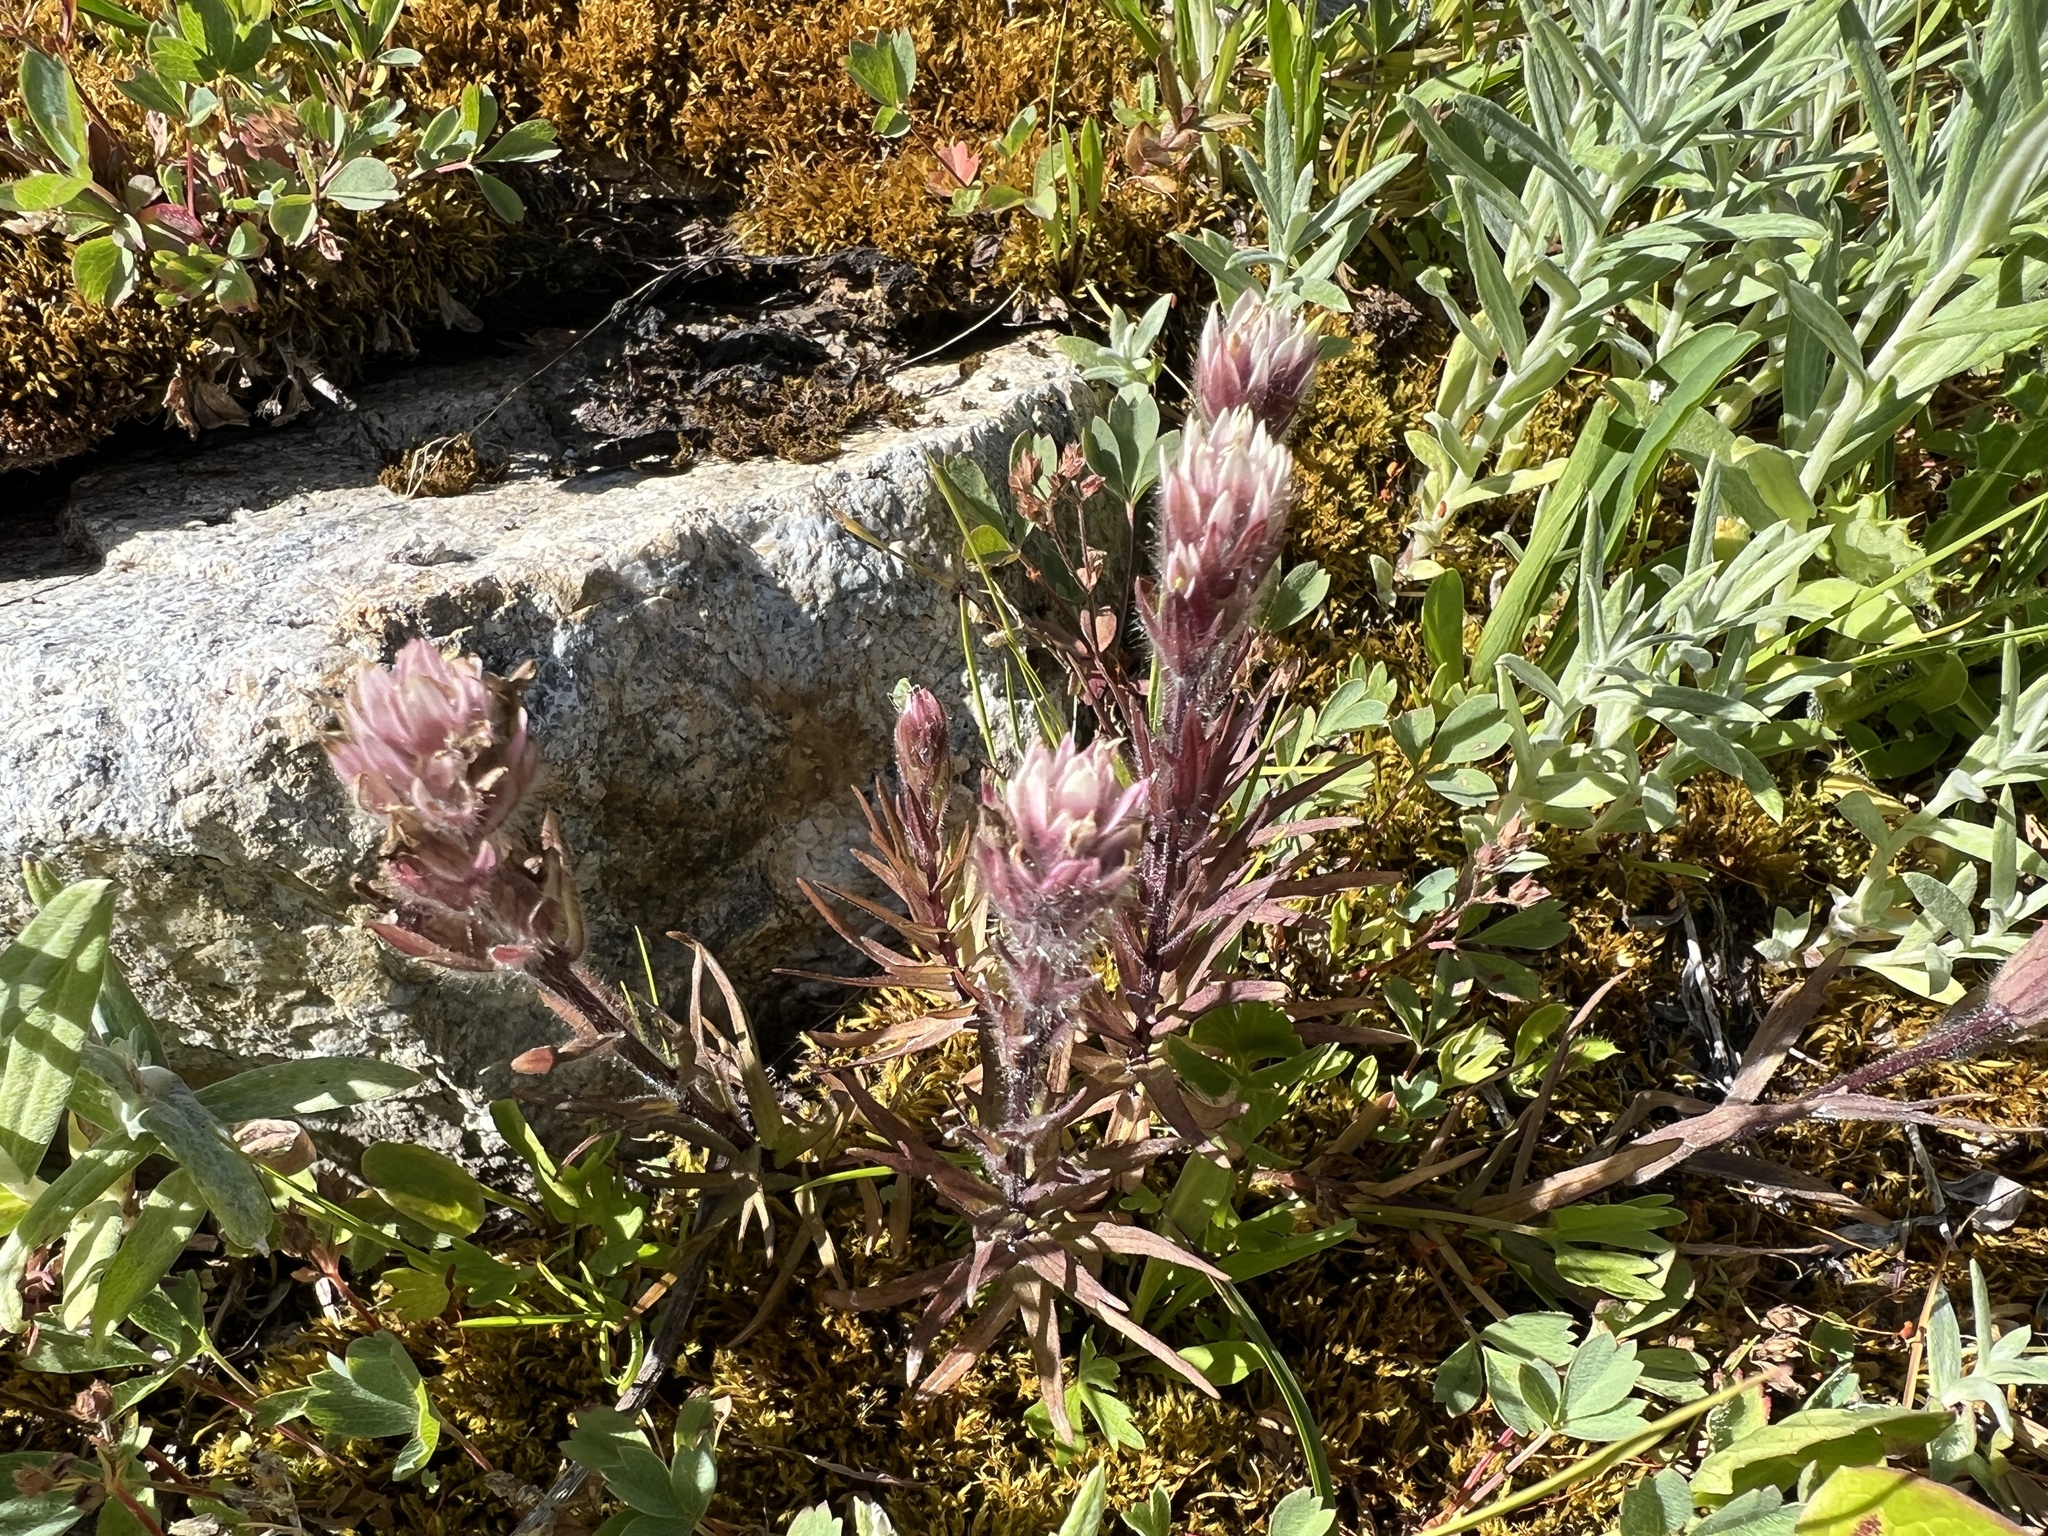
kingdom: Plantae
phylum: Tracheophyta
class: Magnoliopsida
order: Lamiales
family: Orobanchaceae
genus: Castilleja
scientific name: Castilleja parviflora
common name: Mountain paintbrush
